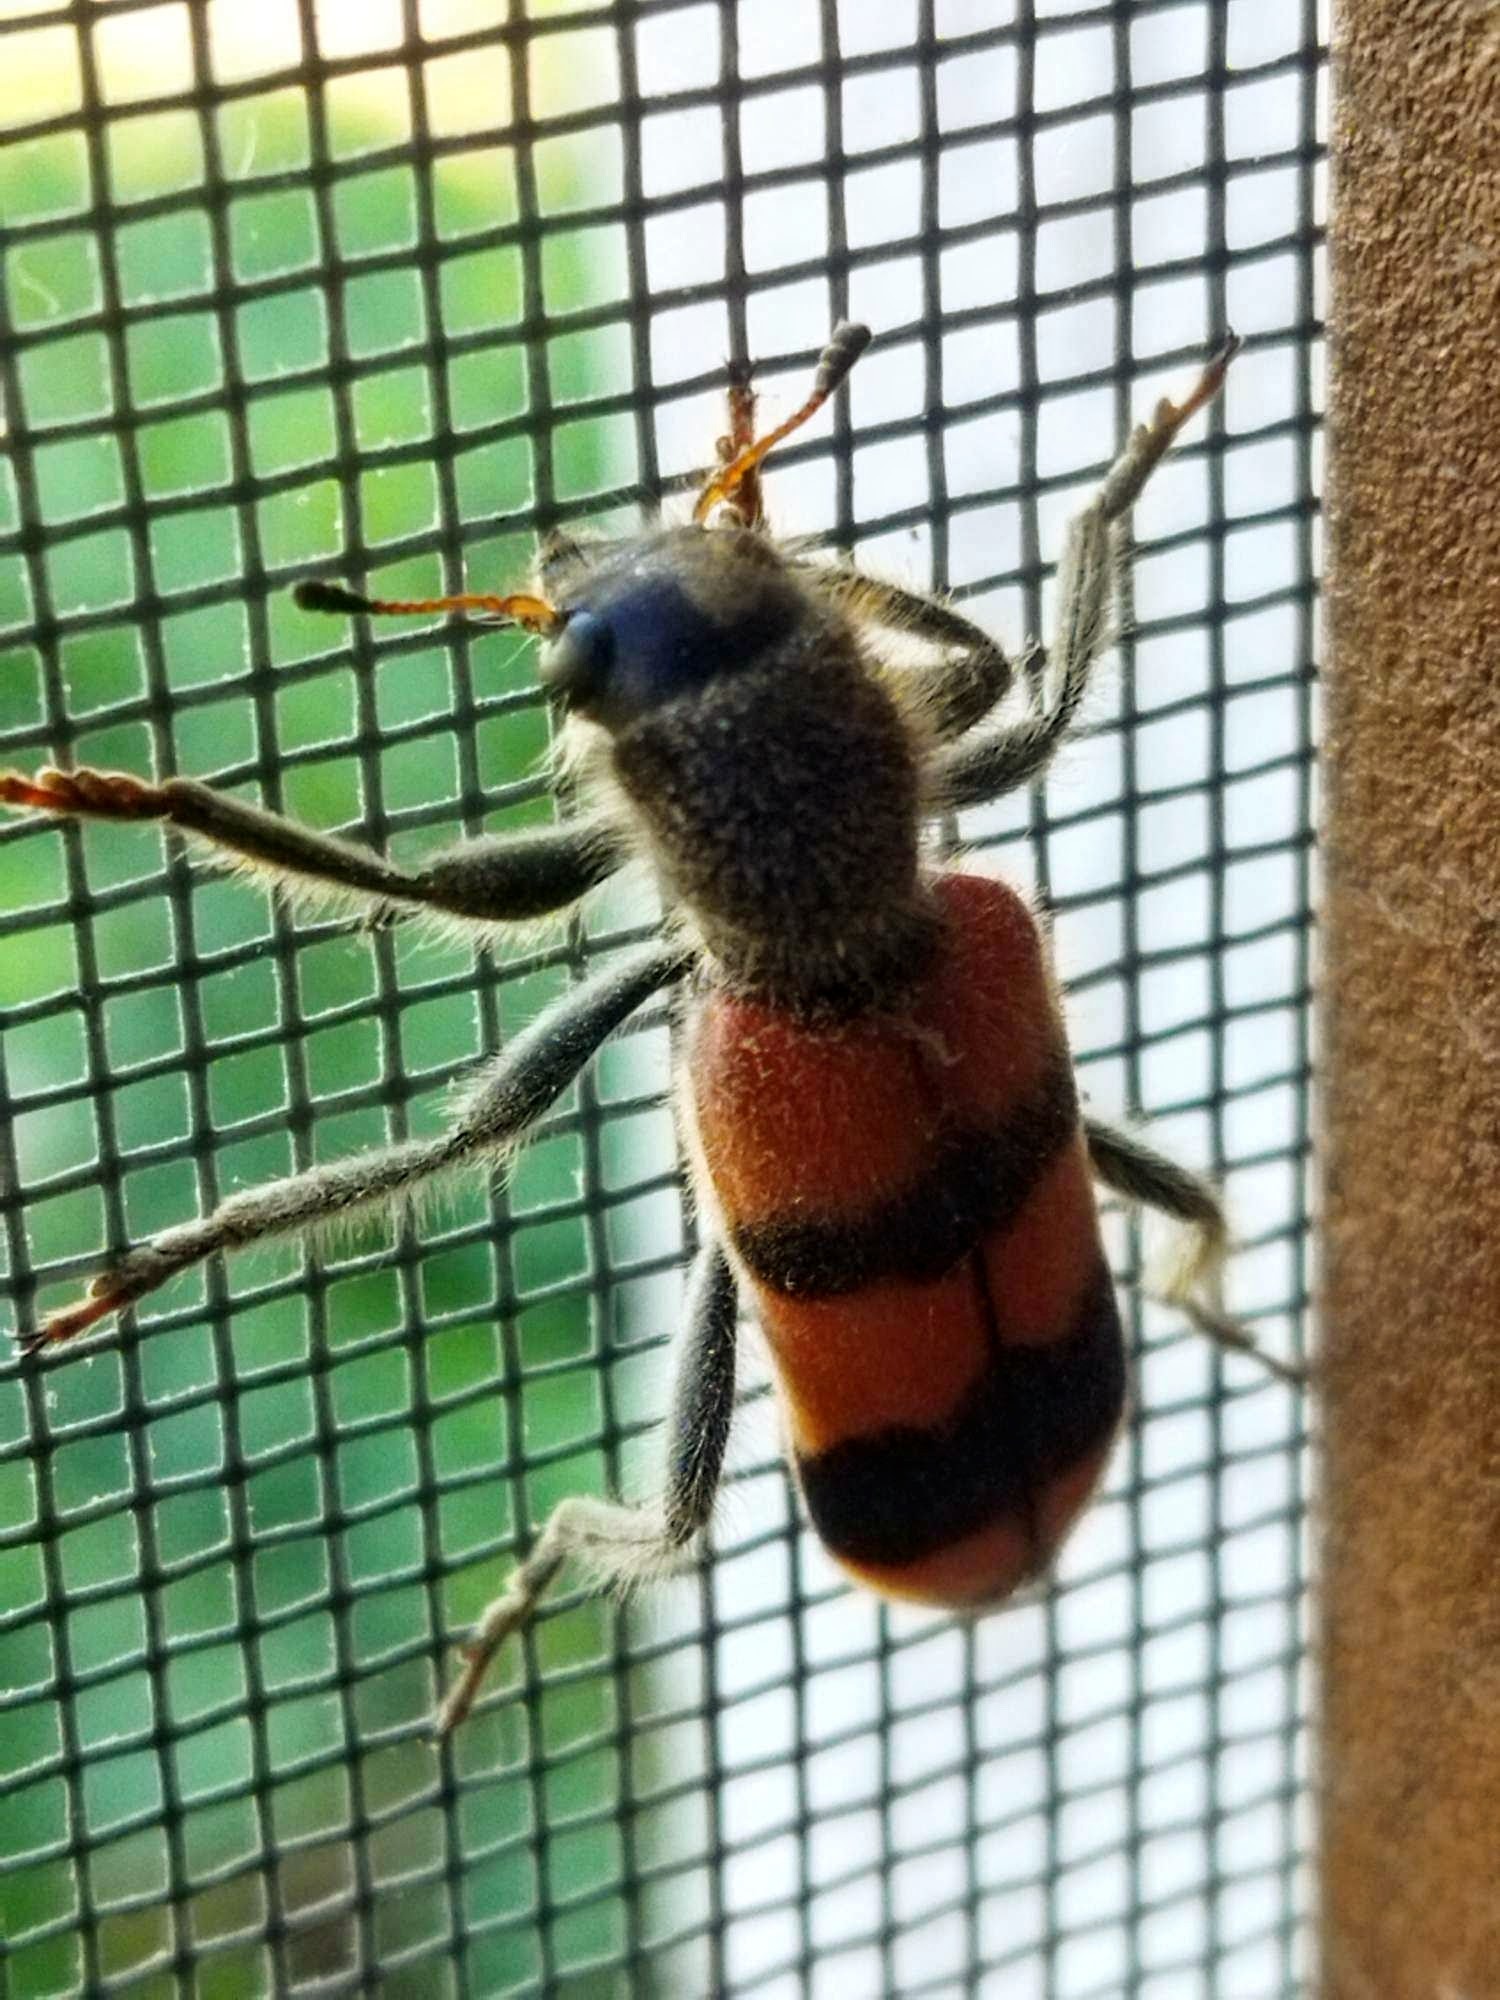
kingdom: Animalia
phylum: Arthropoda
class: Insecta
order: Coleoptera
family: Cleridae
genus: Trichodes
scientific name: Trichodes crabroniformis
